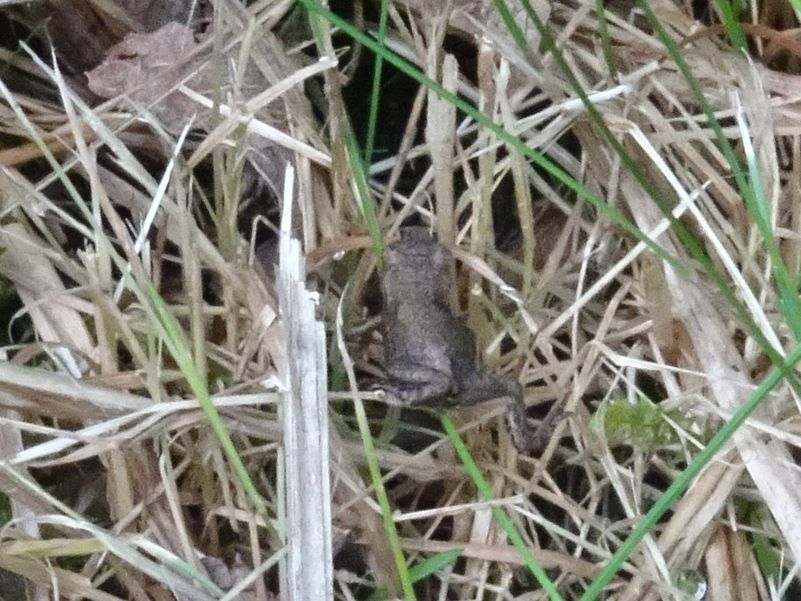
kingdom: Animalia
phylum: Chordata
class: Amphibia
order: Anura
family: Bufonidae
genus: Bufo
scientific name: Bufo bufo
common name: Common toad
